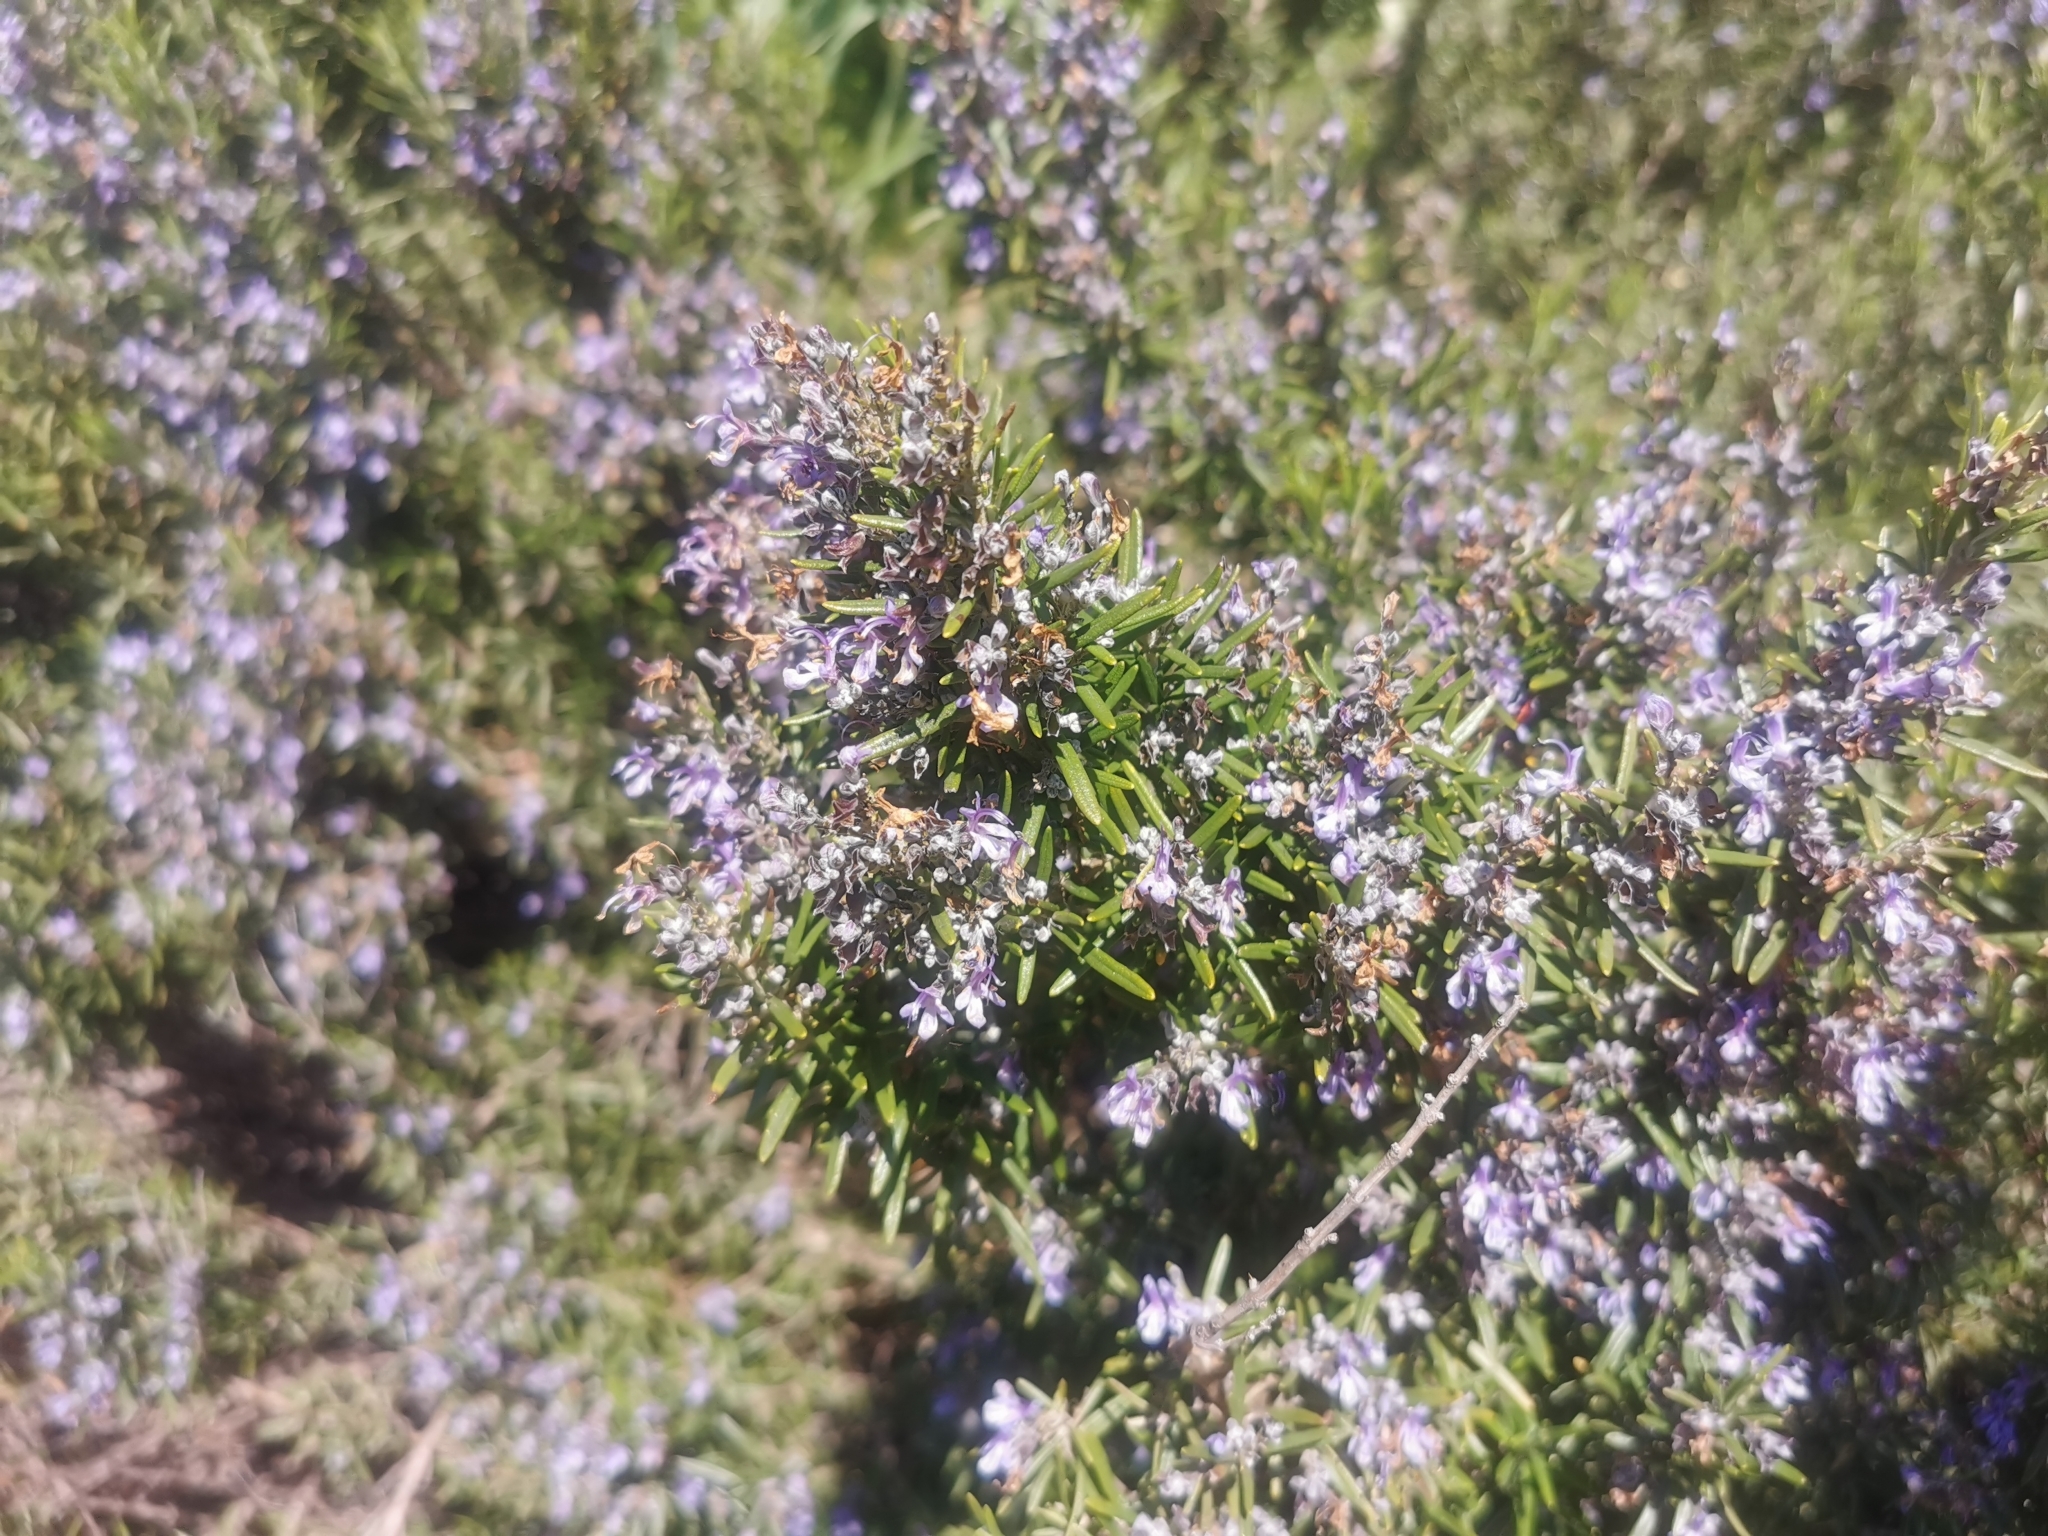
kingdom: Plantae
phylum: Tracheophyta
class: Magnoliopsida
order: Lamiales
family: Lamiaceae
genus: Salvia
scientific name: Salvia rosmarinus
